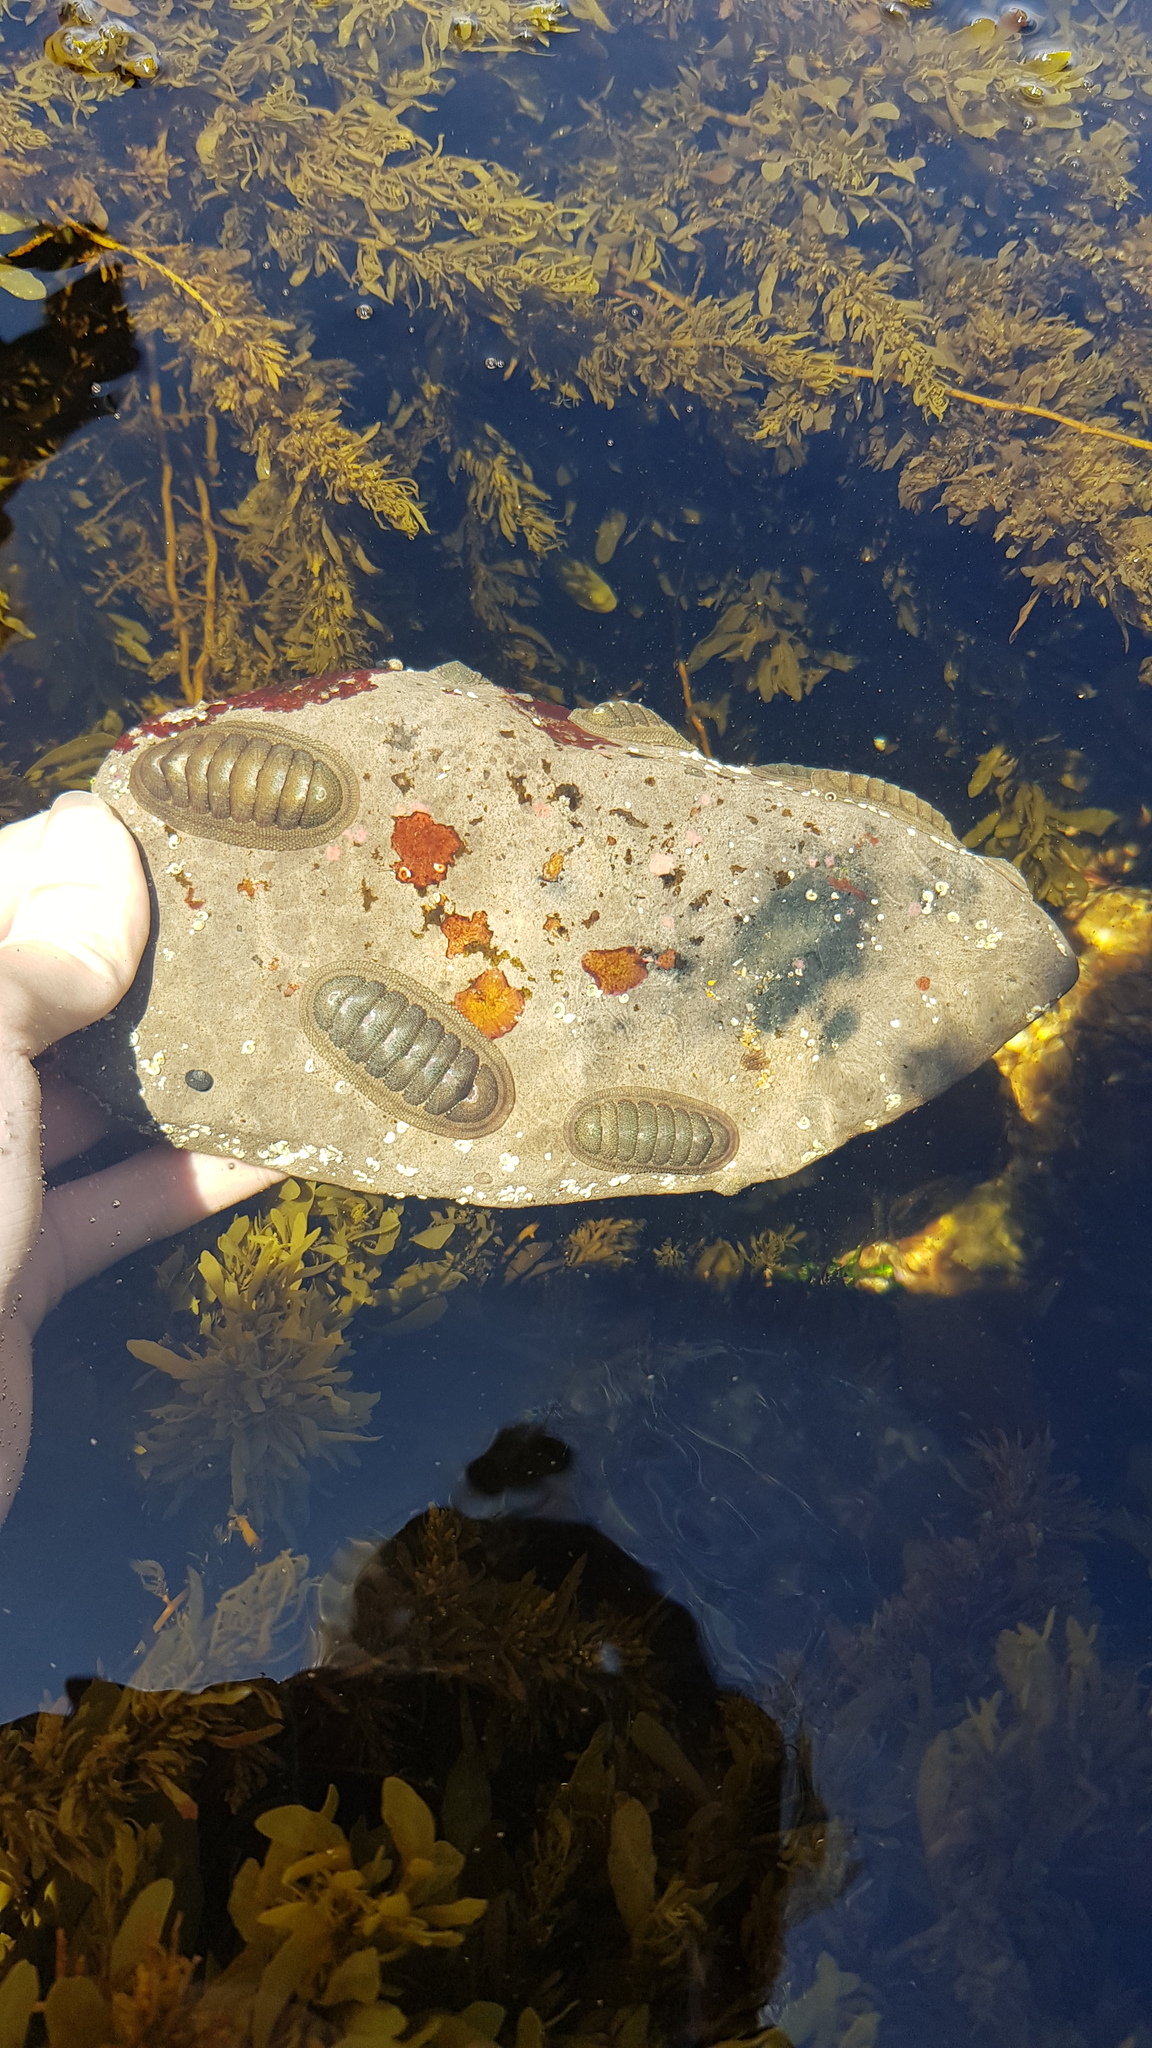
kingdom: Animalia
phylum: Mollusca
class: Polyplacophora
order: Chitonida
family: Ischnochitonidae
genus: Ischnochiton
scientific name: Ischnochiton australis
